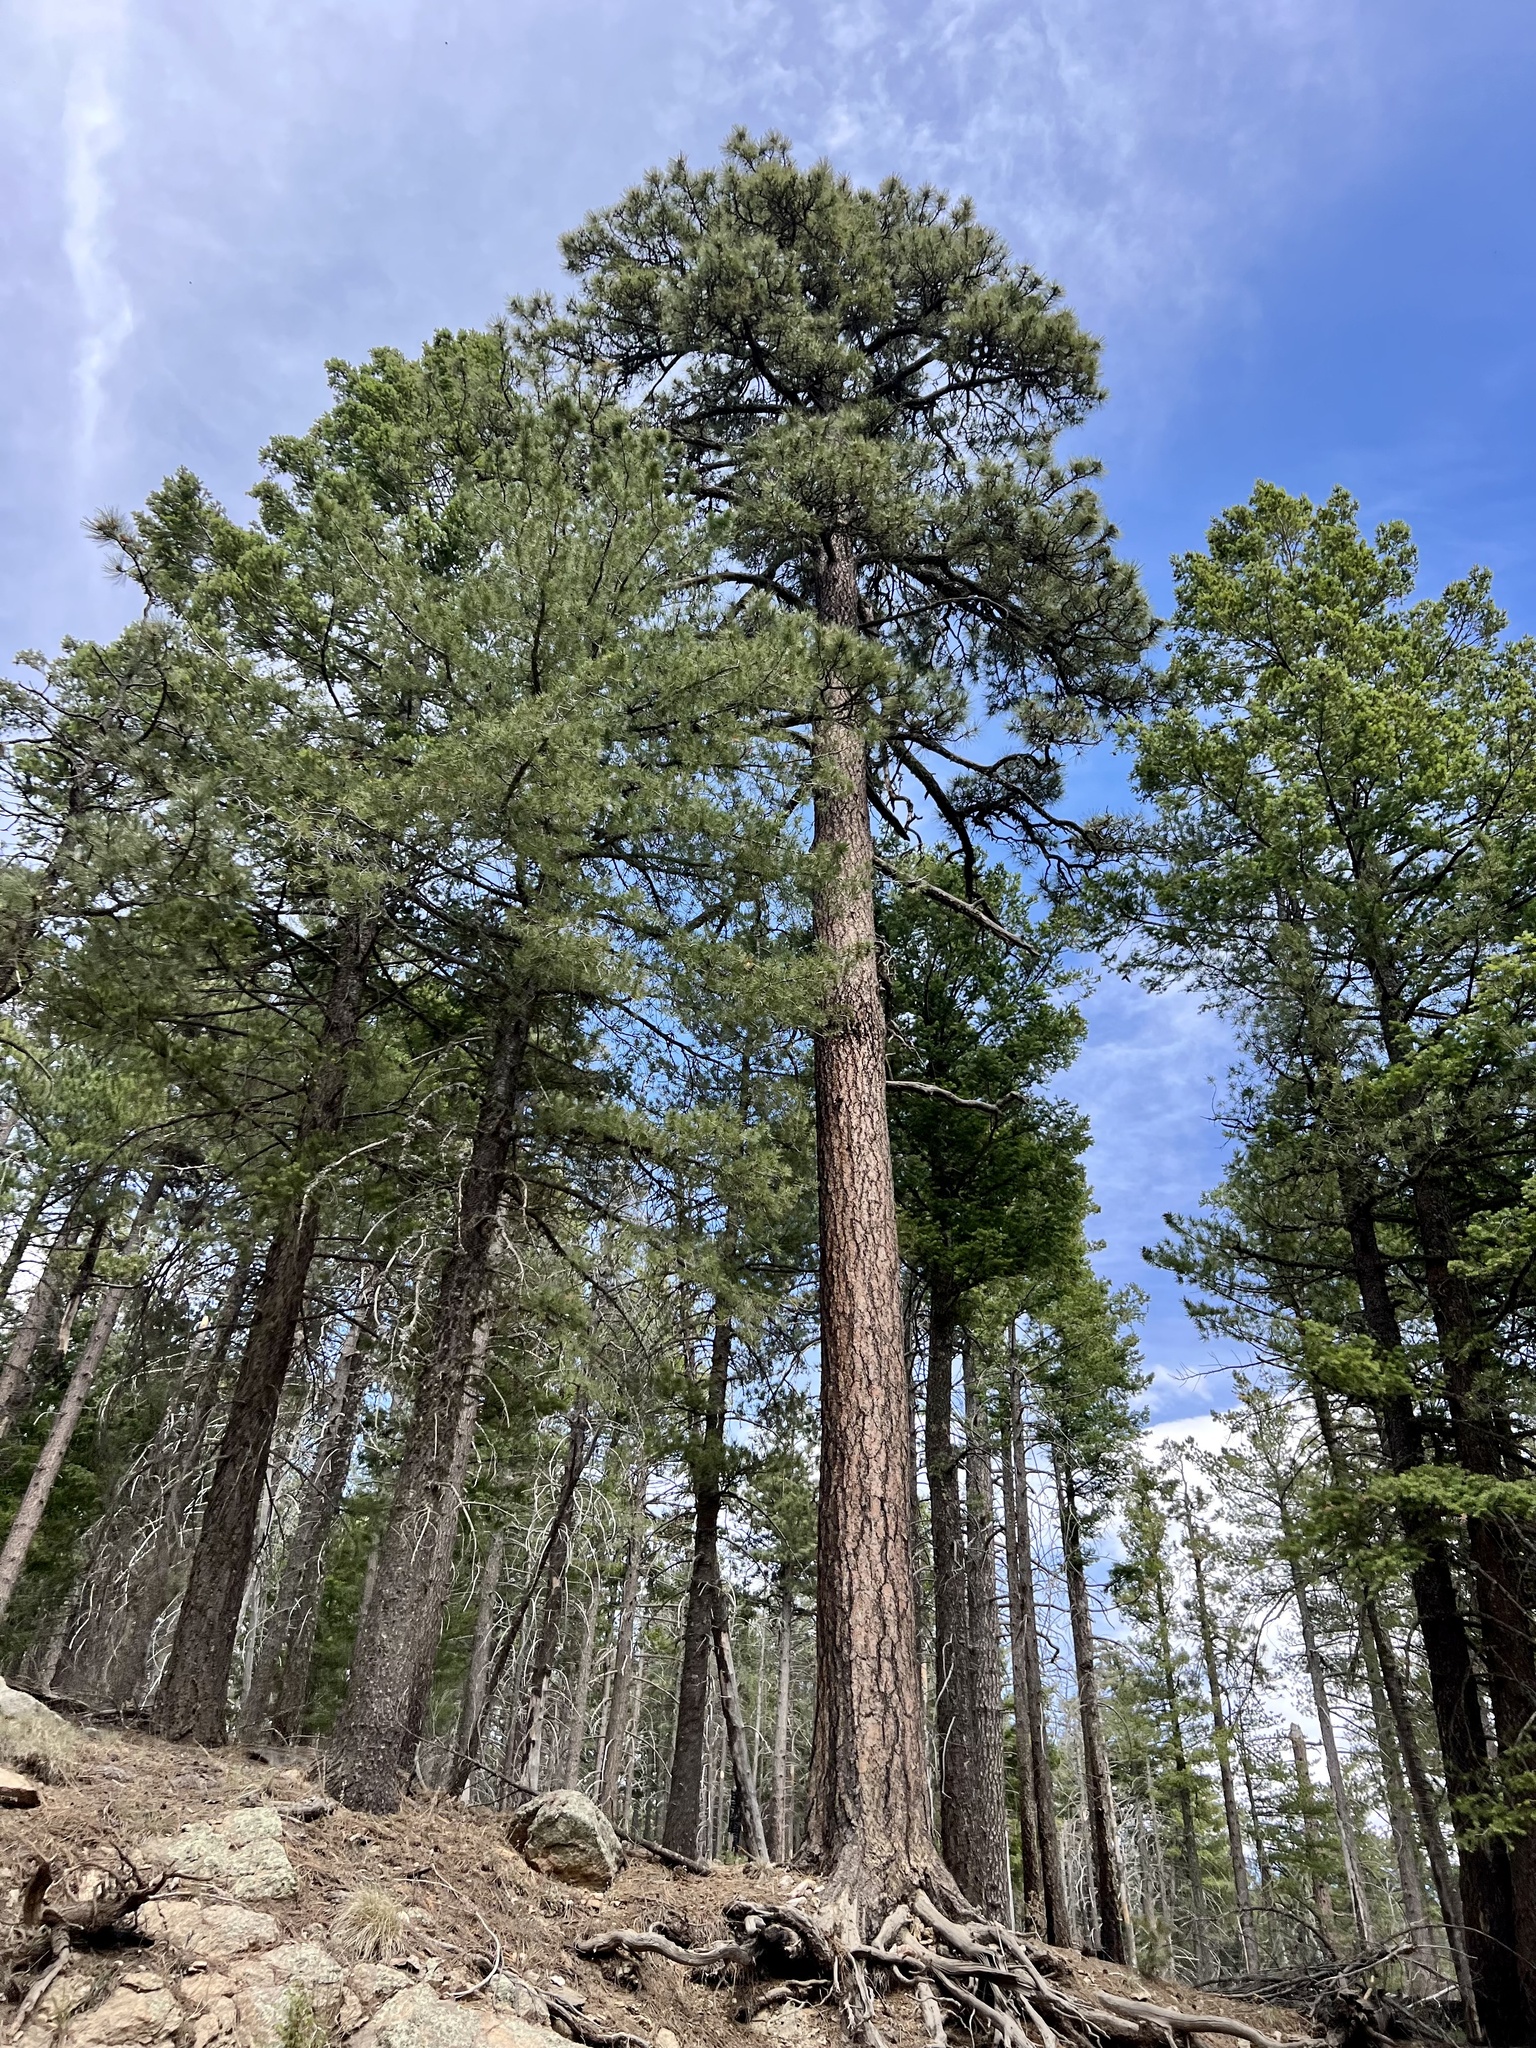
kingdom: Plantae
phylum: Tracheophyta
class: Pinopsida
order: Pinales
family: Pinaceae
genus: Pinus
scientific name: Pinus ponderosa
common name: Western yellow-pine
